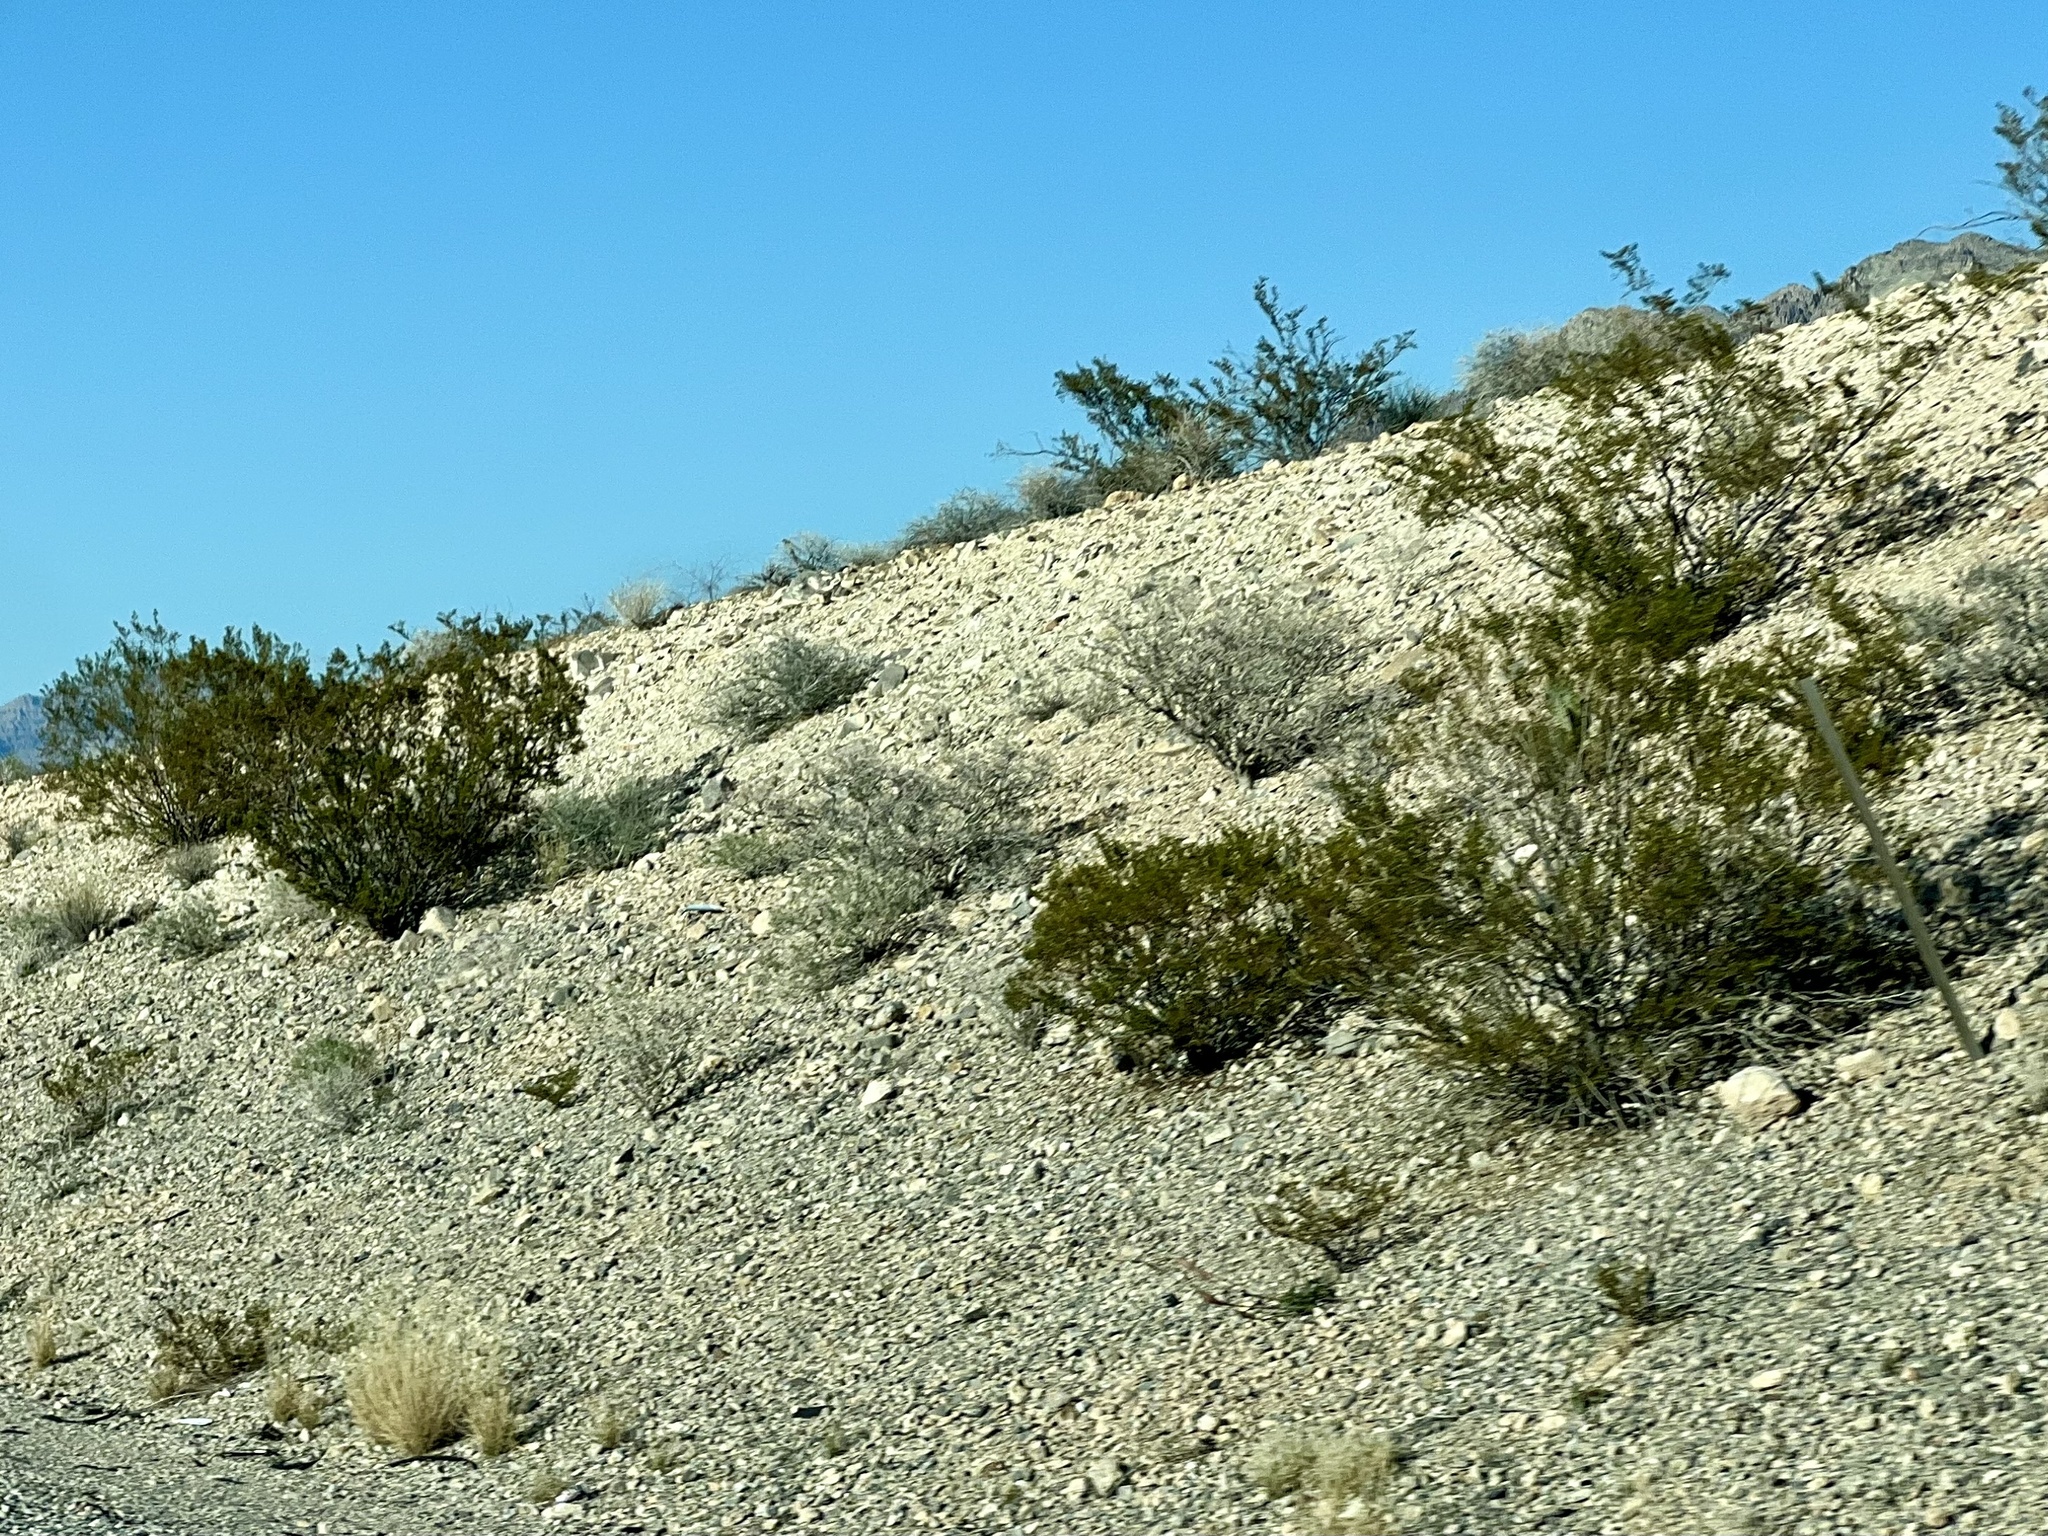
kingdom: Plantae
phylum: Tracheophyta
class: Magnoliopsida
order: Zygophyllales
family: Zygophyllaceae
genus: Larrea
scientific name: Larrea tridentata
